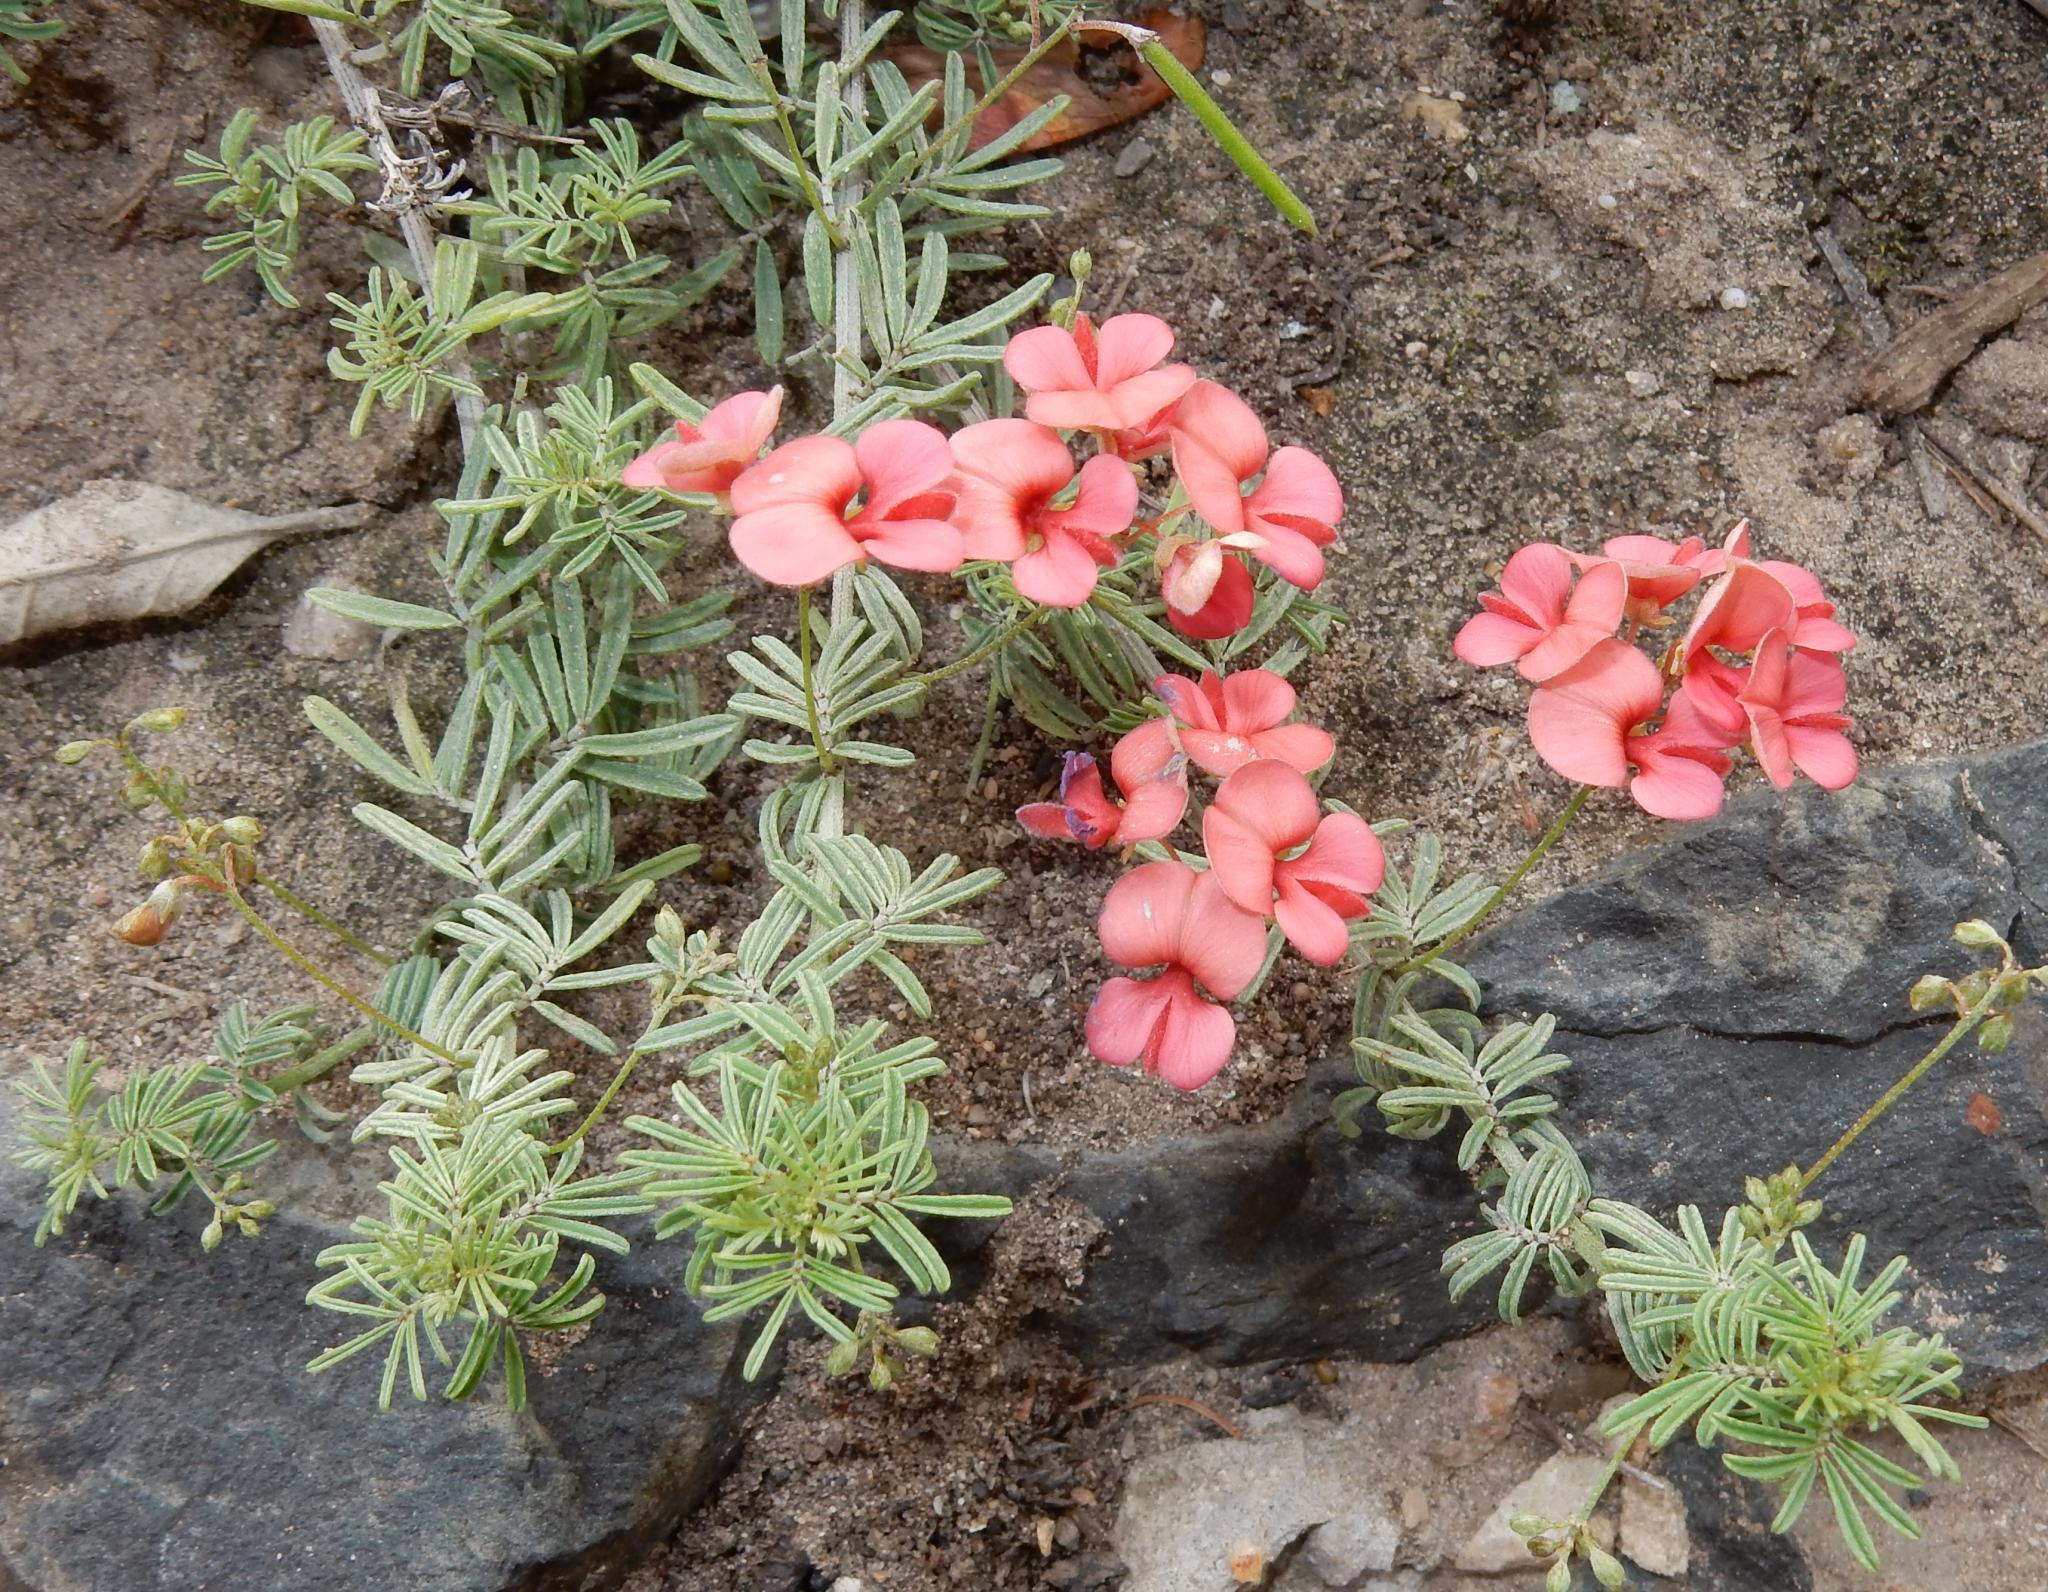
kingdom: Plantae
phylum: Tracheophyta
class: Magnoliopsida
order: Fabales
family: Fabaceae
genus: Indigofera
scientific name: Indigofera verrucosa
